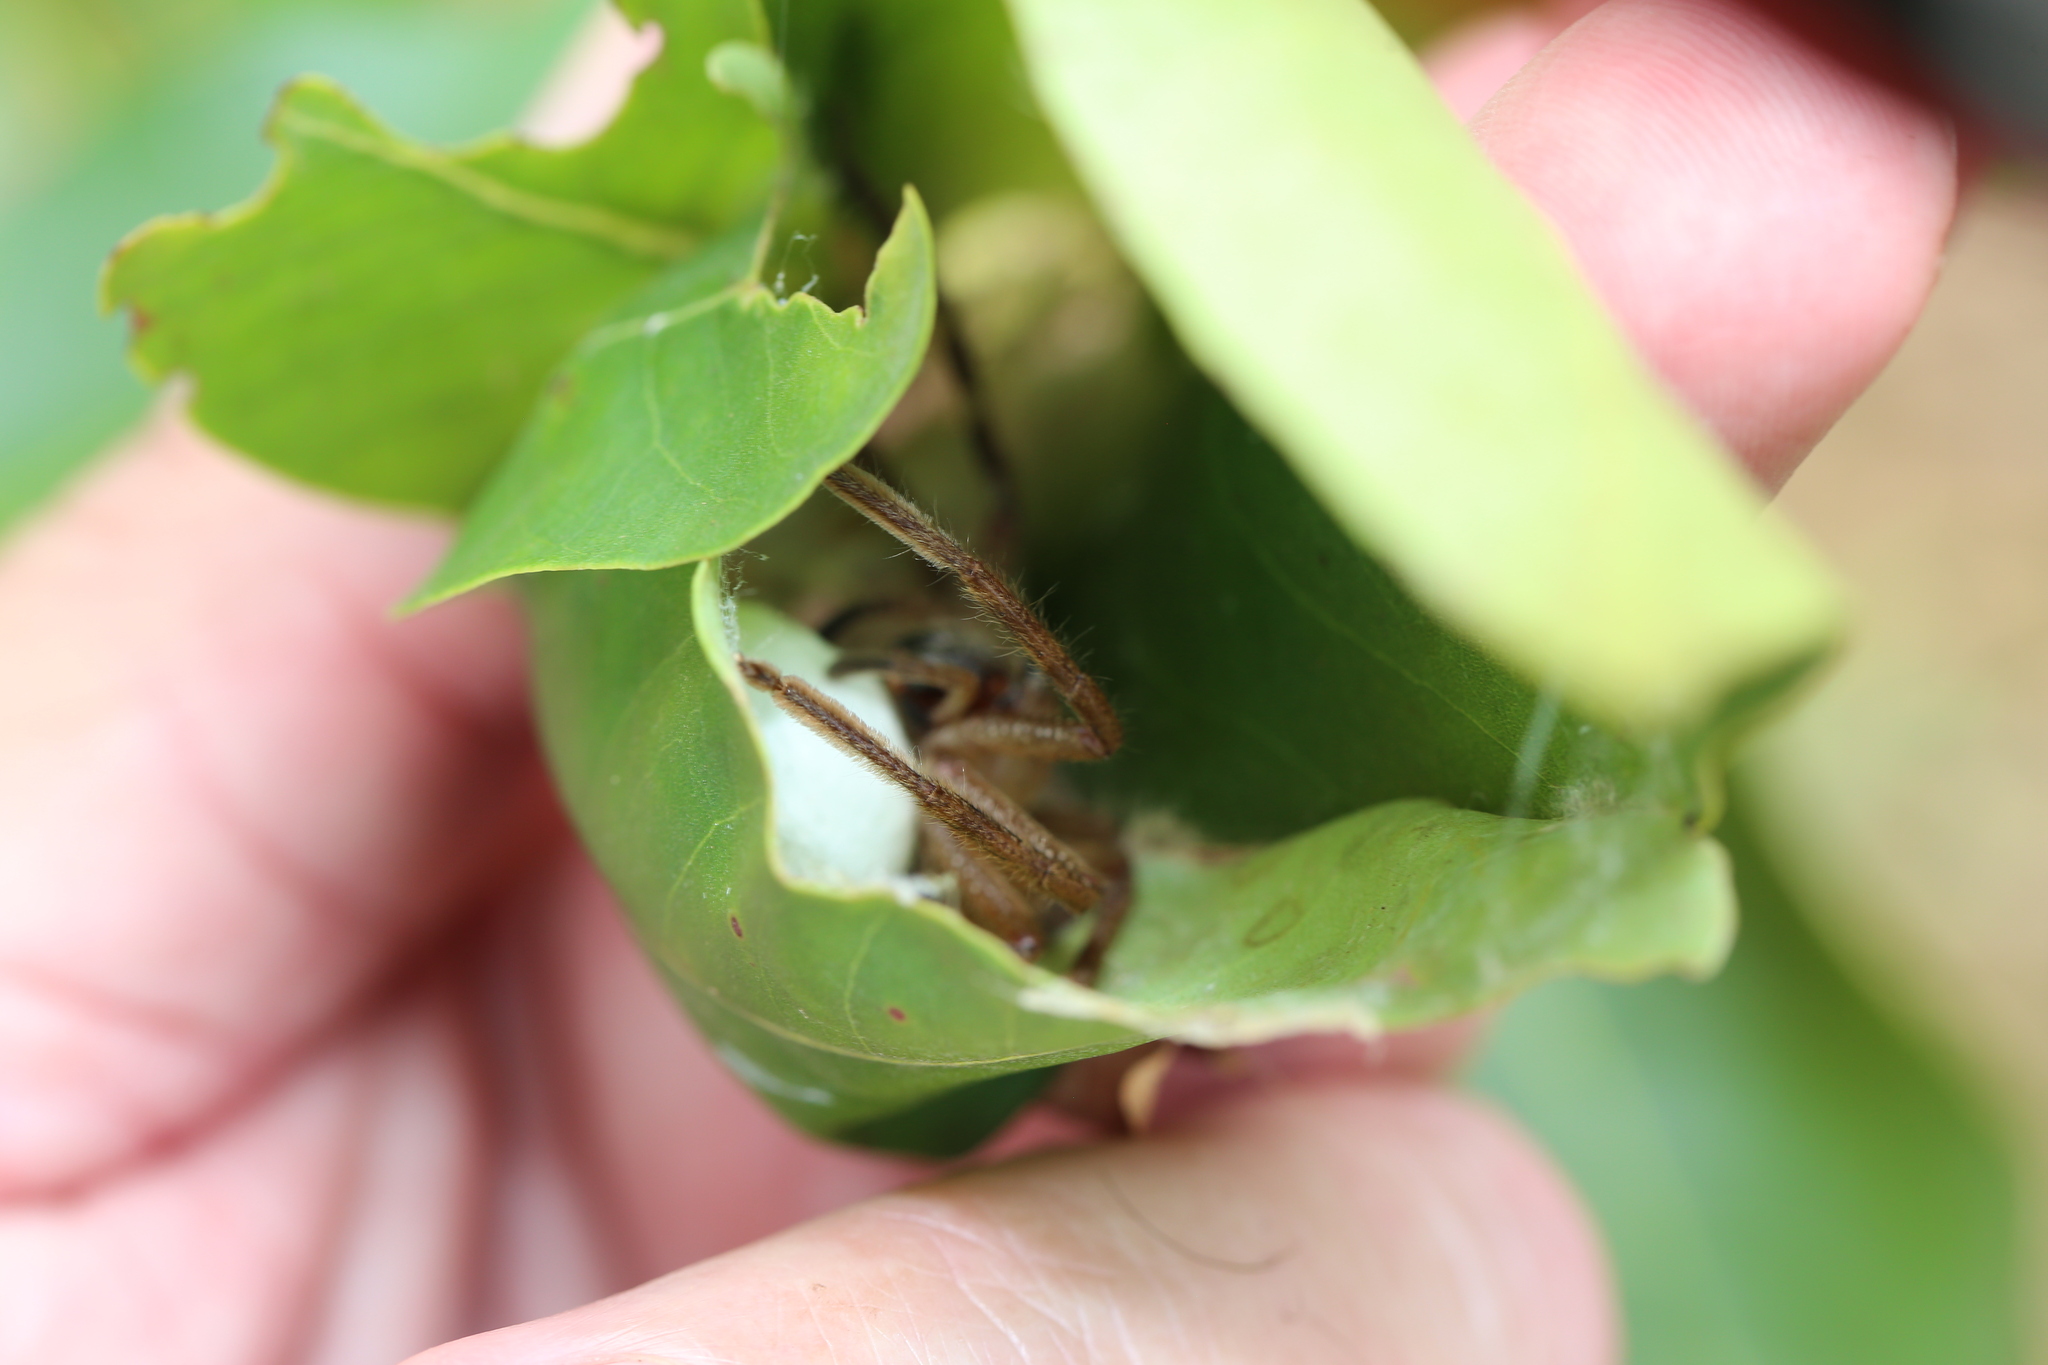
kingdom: Animalia
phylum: Arthropoda
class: Arachnida
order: Araneae
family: Sparassidae
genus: Neosparassus
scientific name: Neosparassus calligaster
